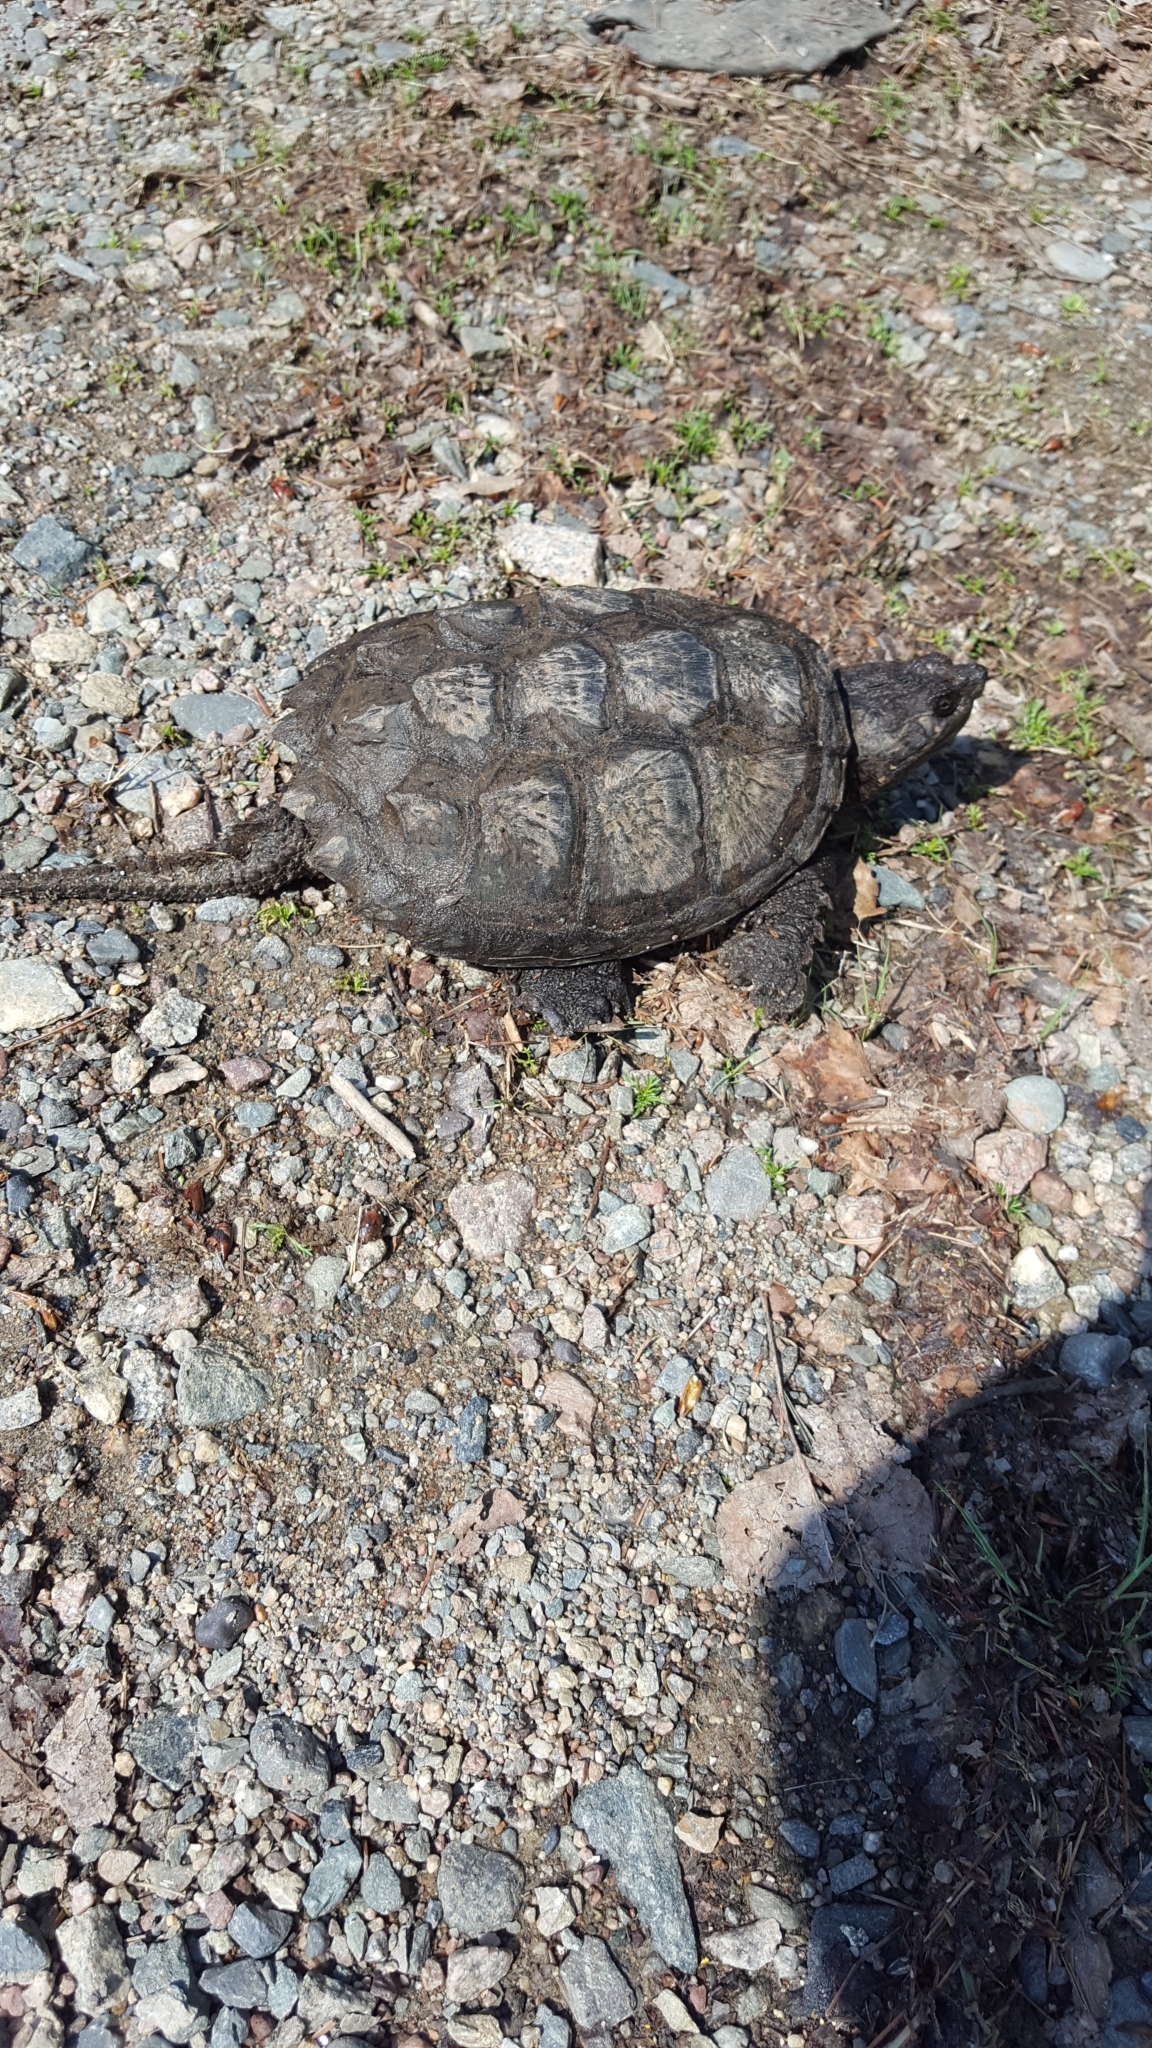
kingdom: Animalia
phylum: Chordata
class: Testudines
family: Chelydridae
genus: Chelydra
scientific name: Chelydra serpentina
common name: Common snapping turtle
